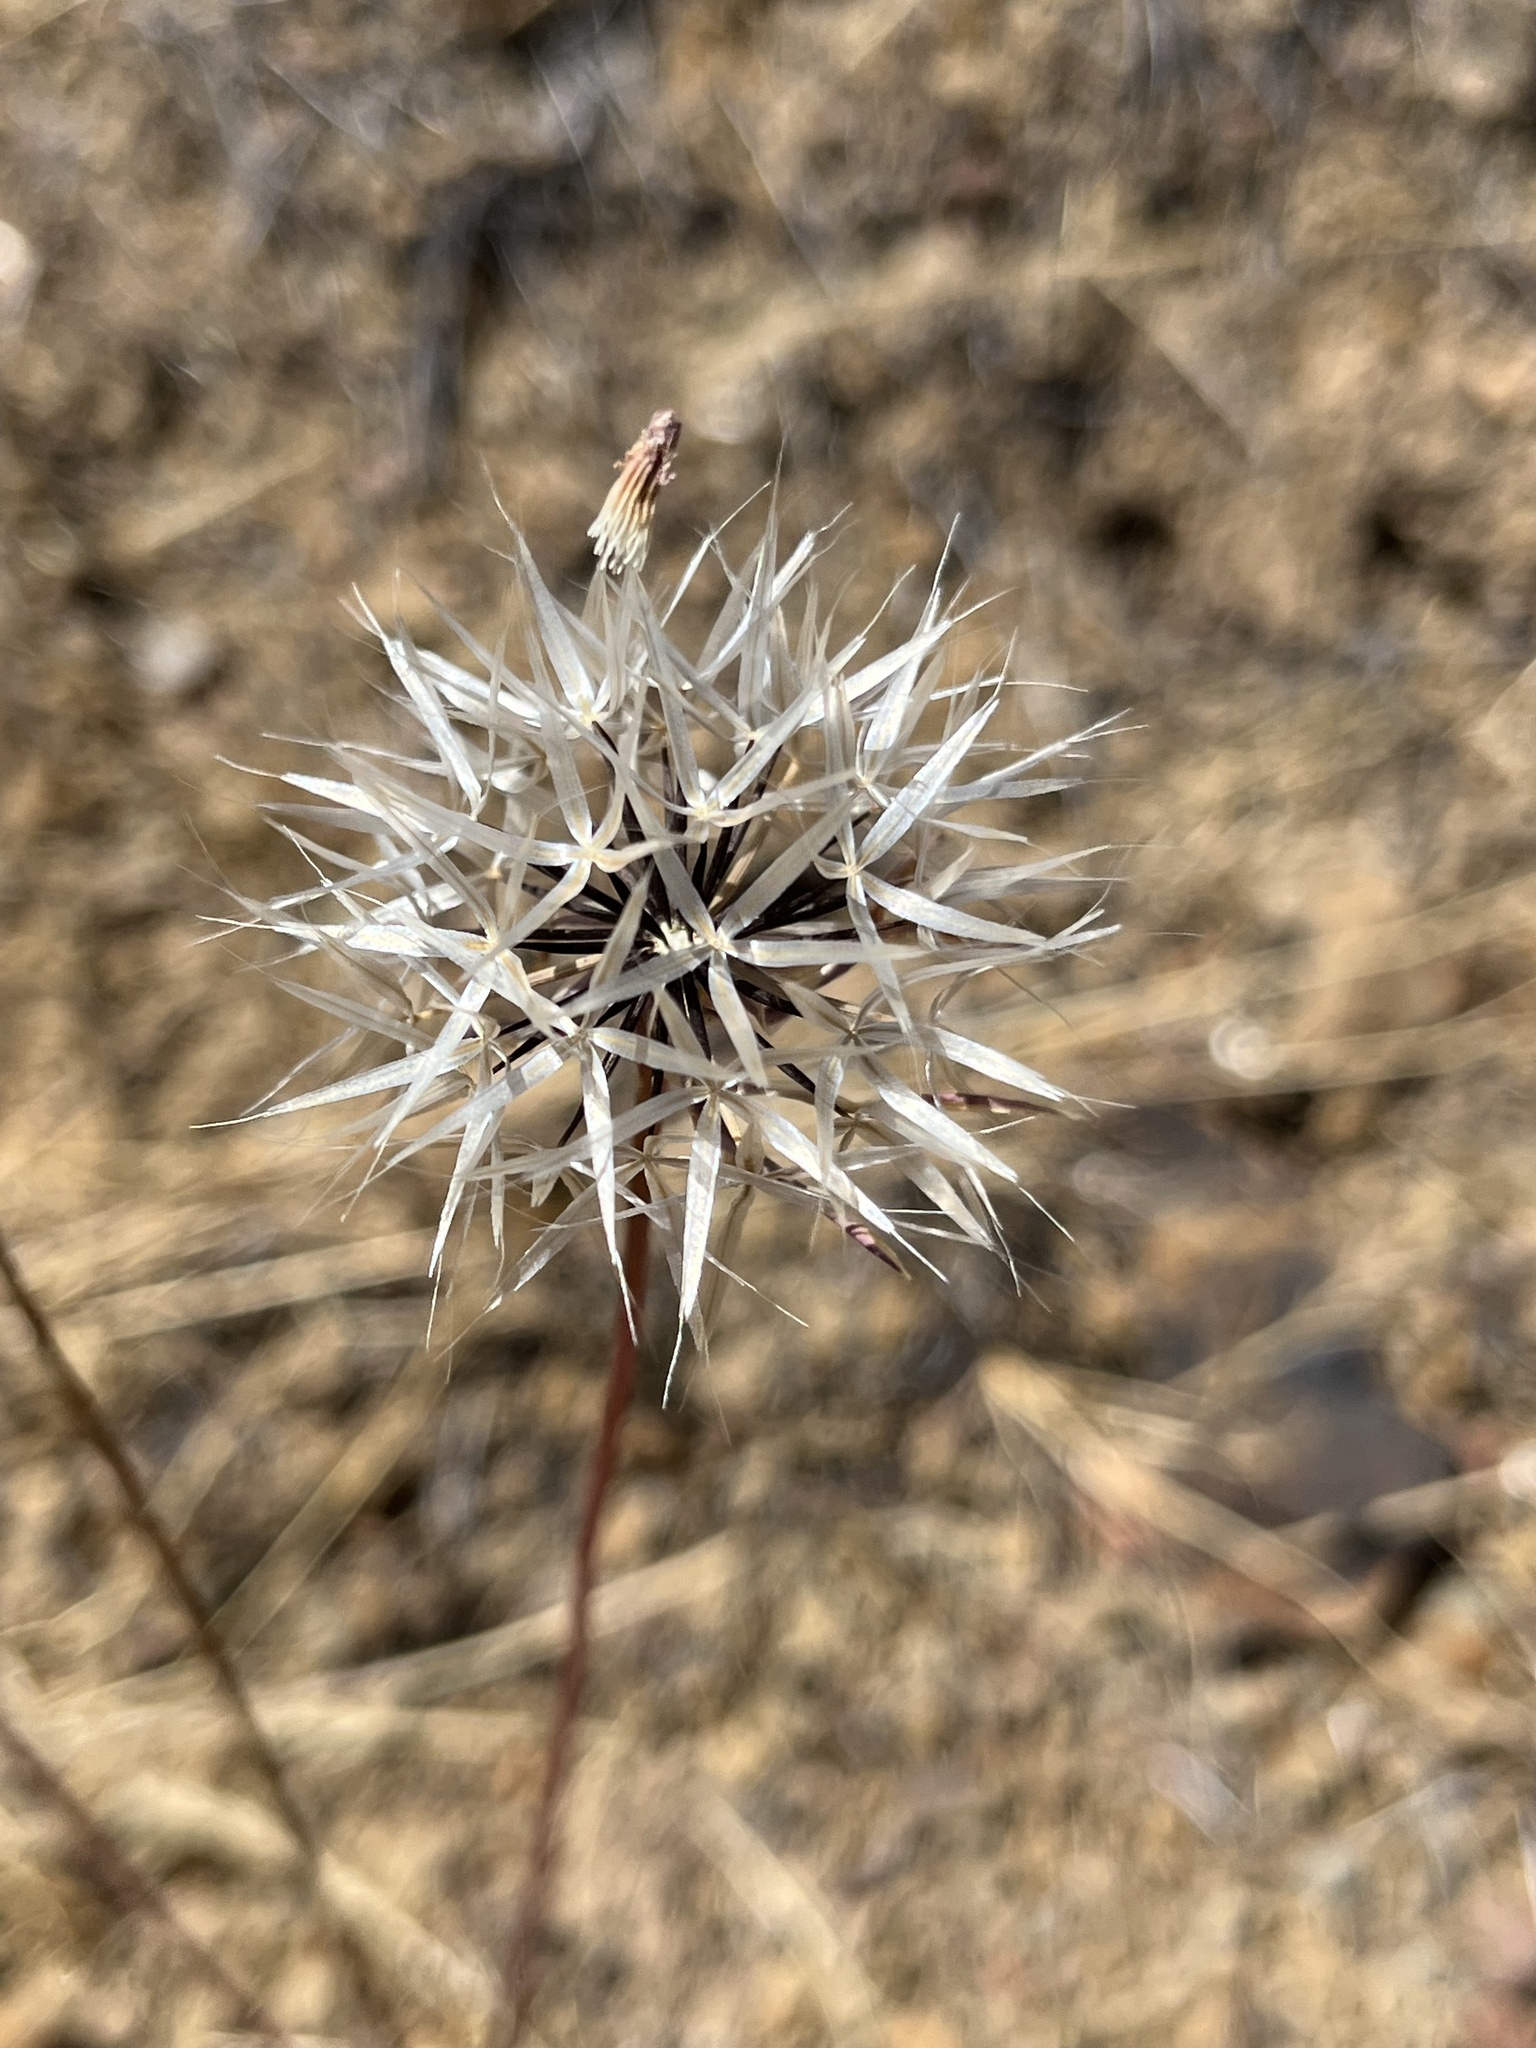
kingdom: Plantae
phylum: Tracheophyta
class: Magnoliopsida
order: Asterales
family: Asteraceae
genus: Microseris
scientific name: Microseris lindleyi
